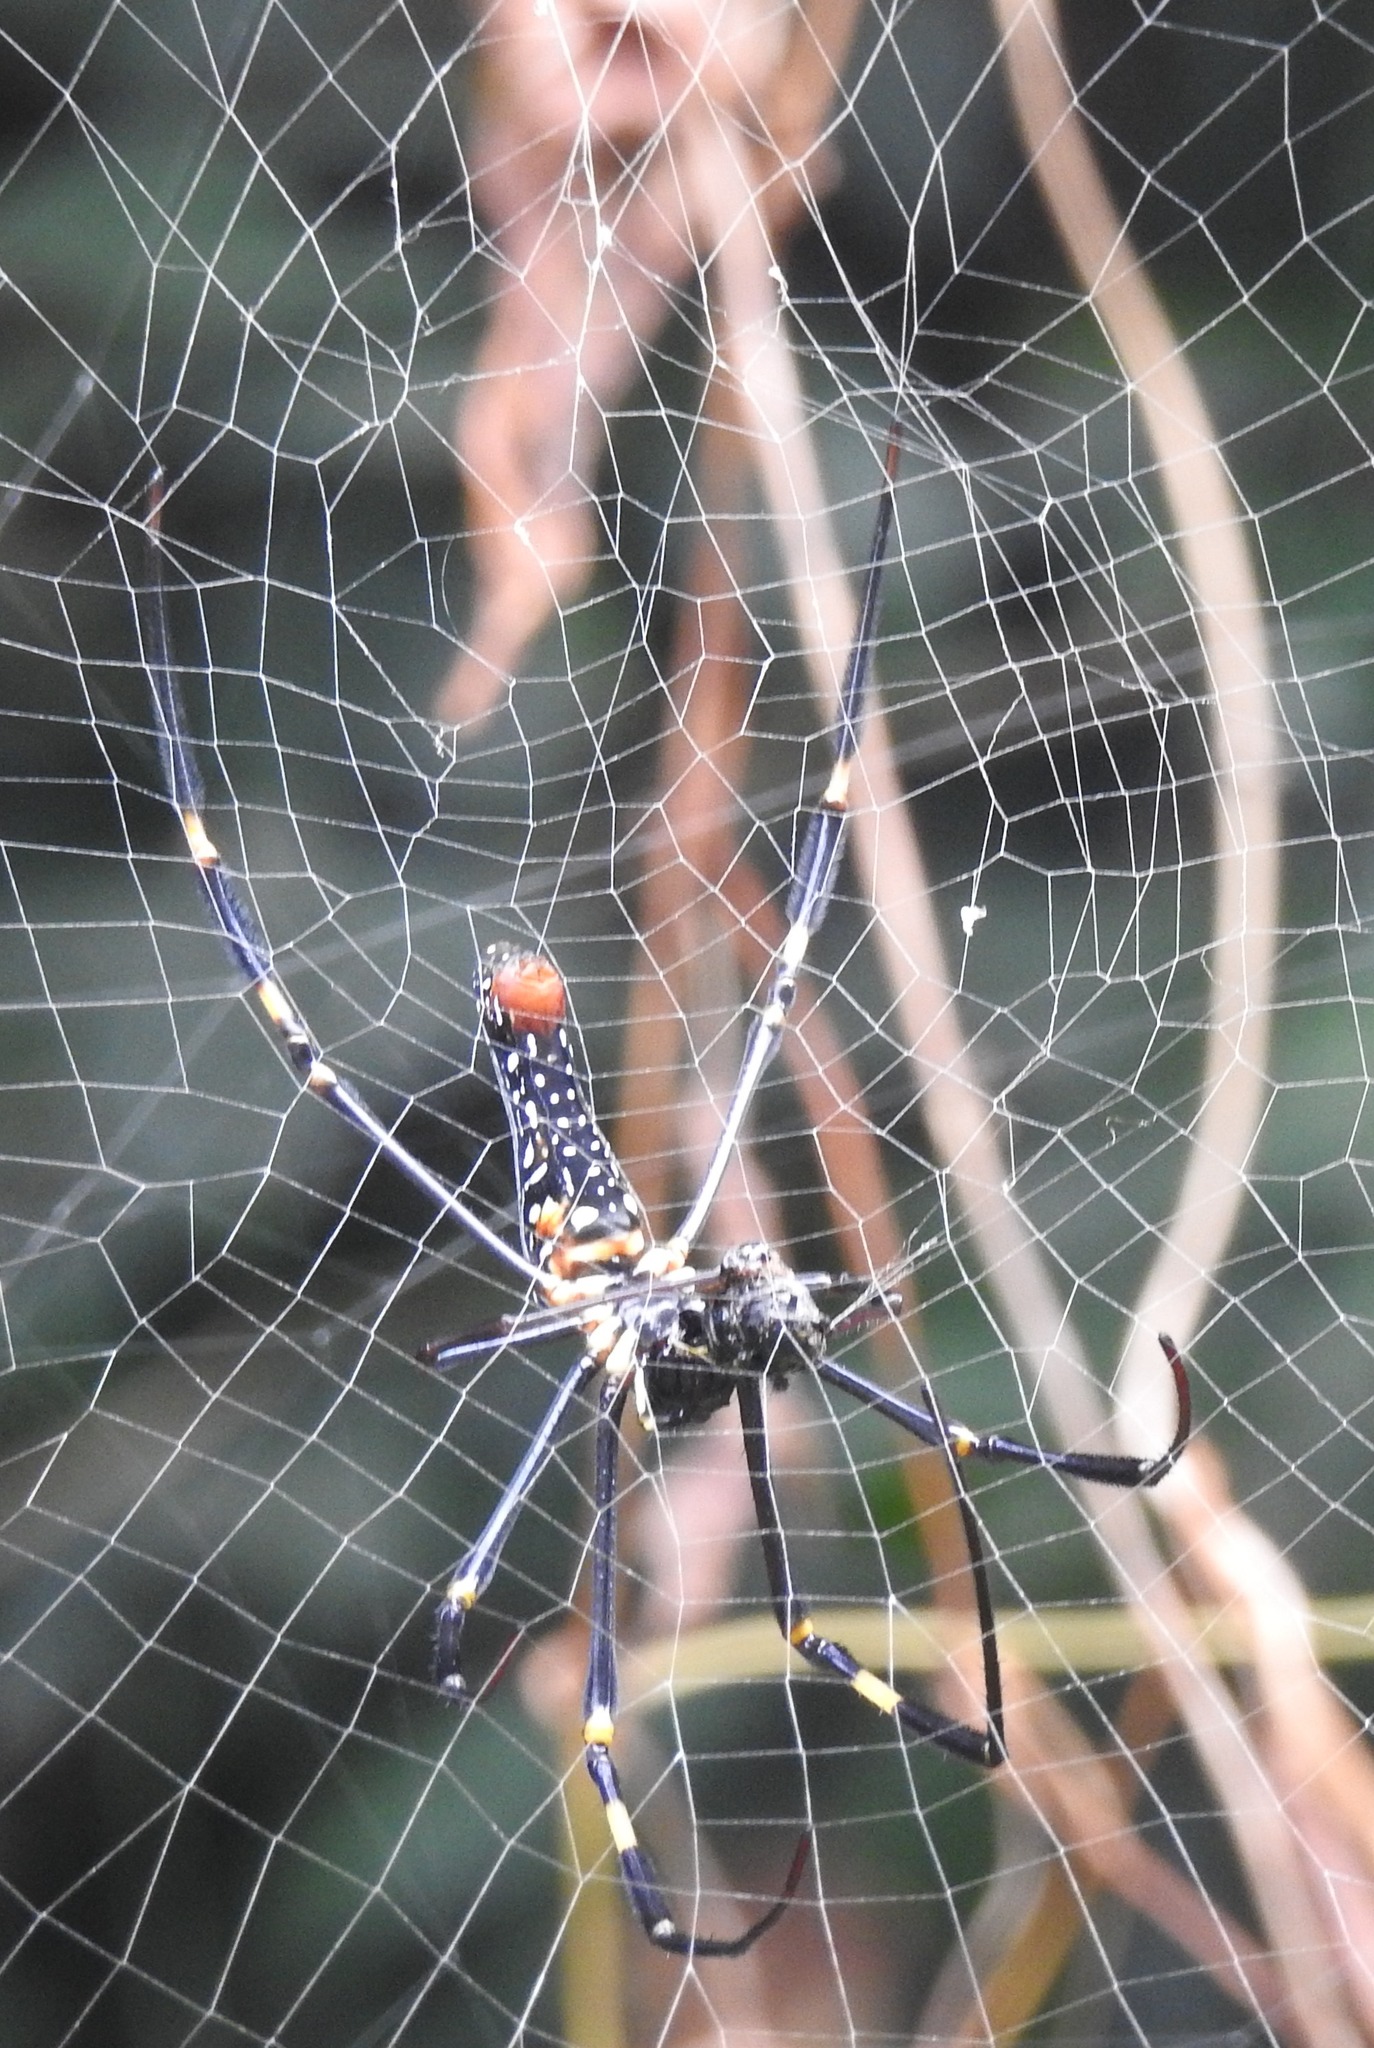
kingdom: Animalia
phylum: Arthropoda
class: Arachnida
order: Araneae
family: Araneidae
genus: Nephila
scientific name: Nephila pilipes
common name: Giant golden orb weaver
